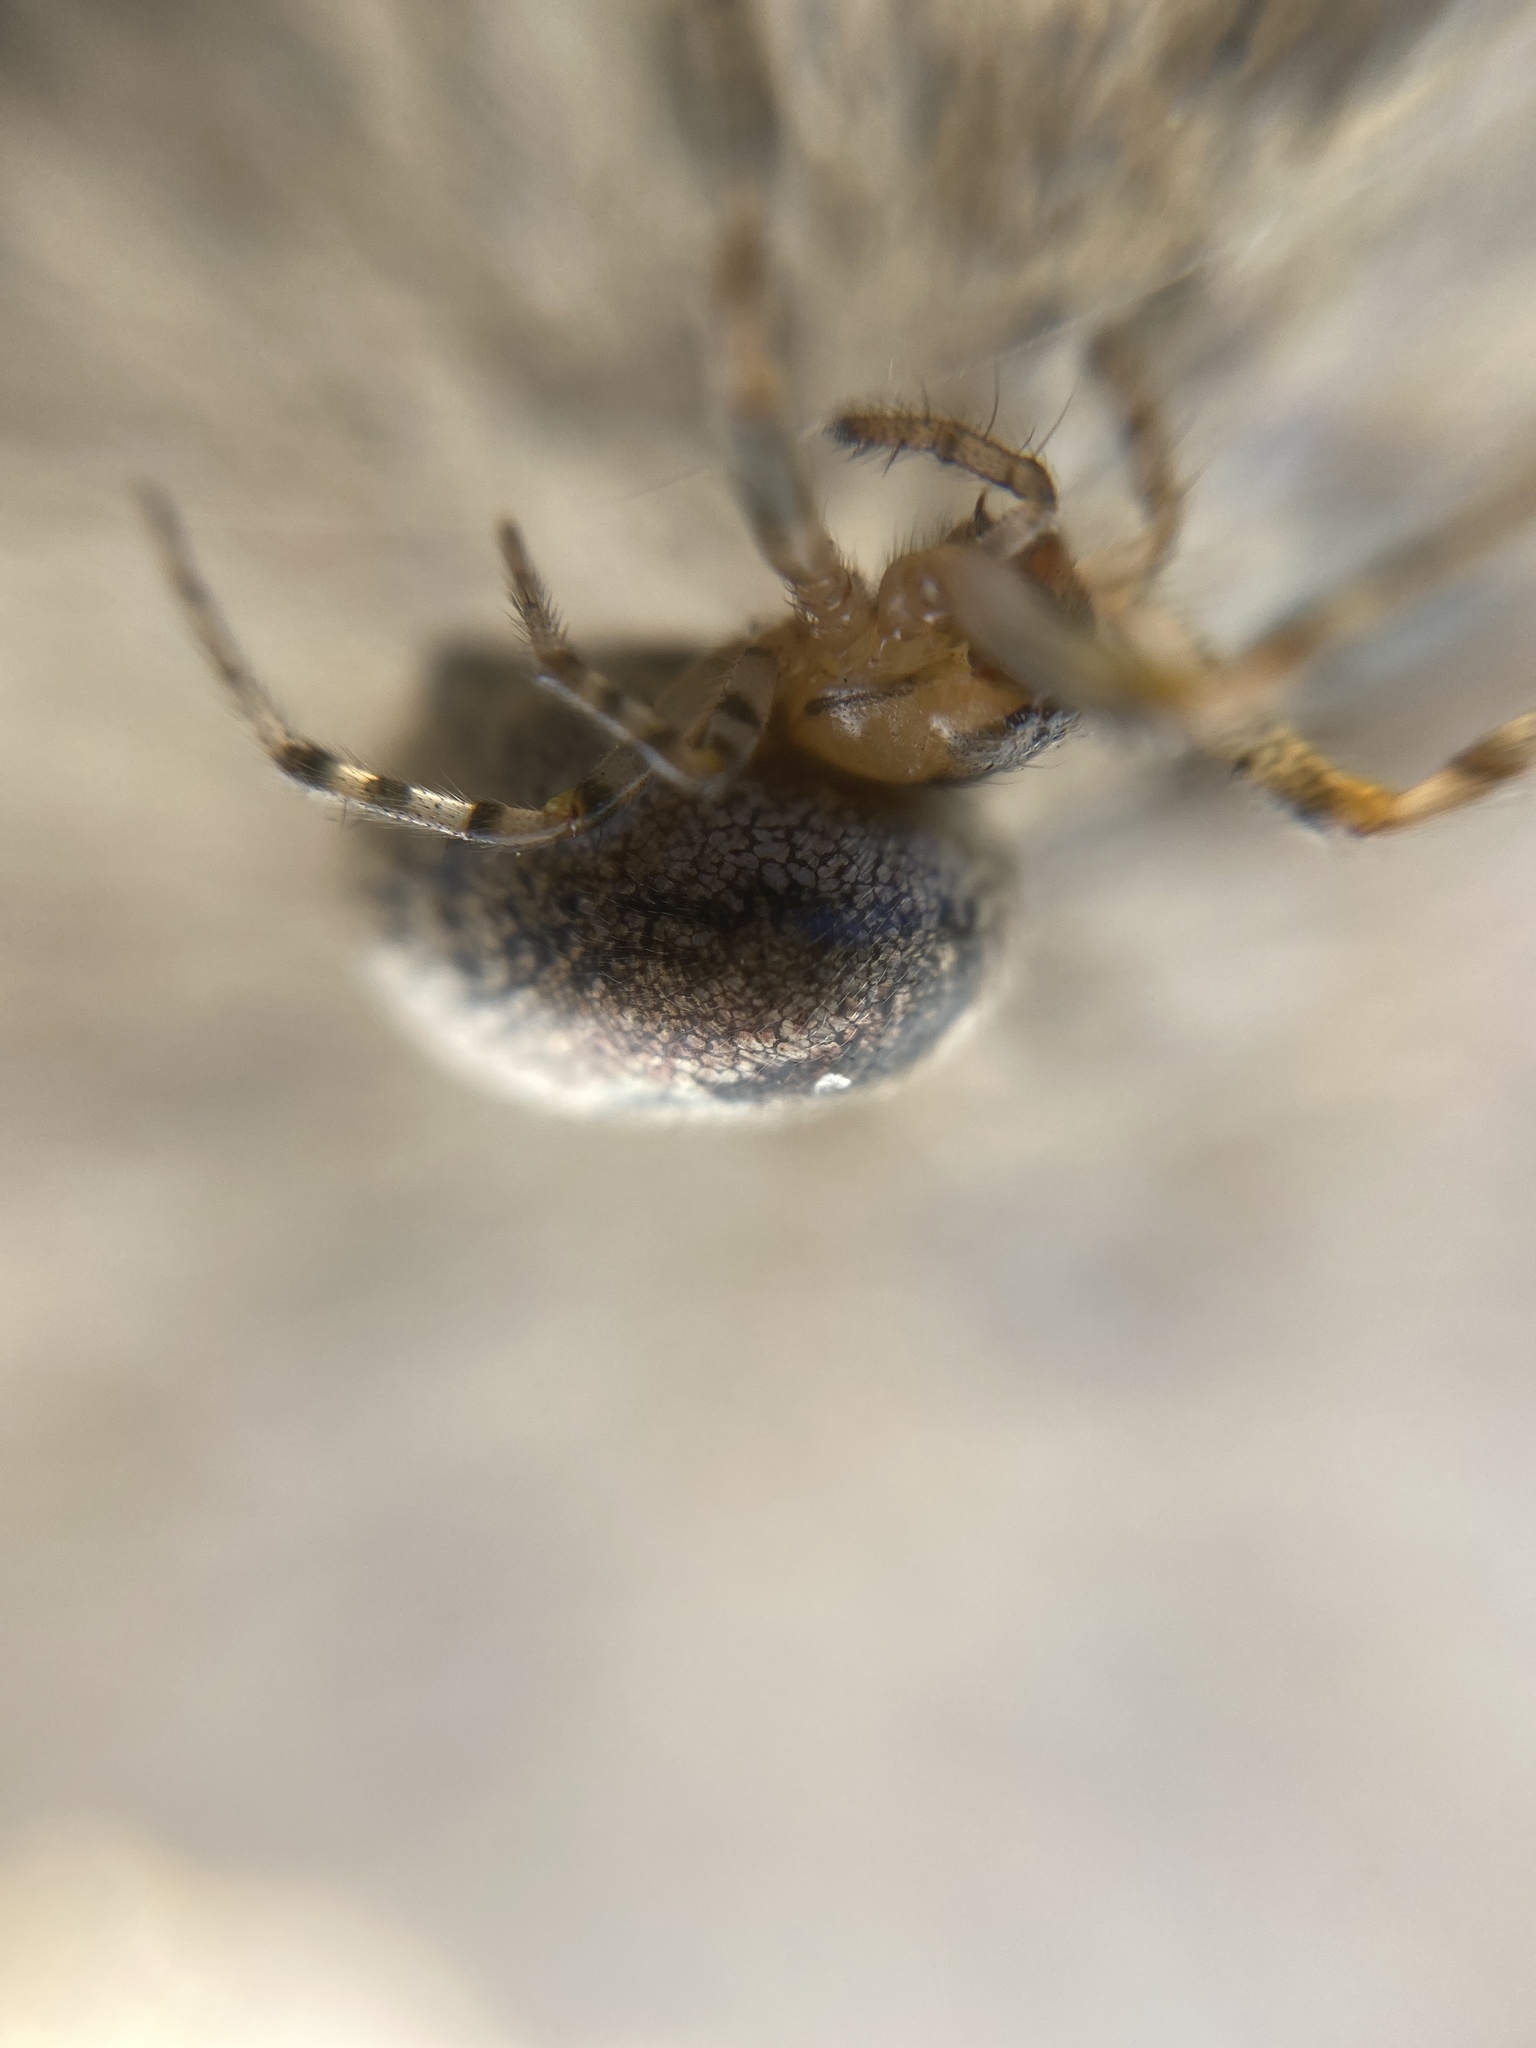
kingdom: Animalia
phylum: Arthropoda
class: Arachnida
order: Araneae
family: Araneidae
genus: Zygiella
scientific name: Zygiella x-notata
